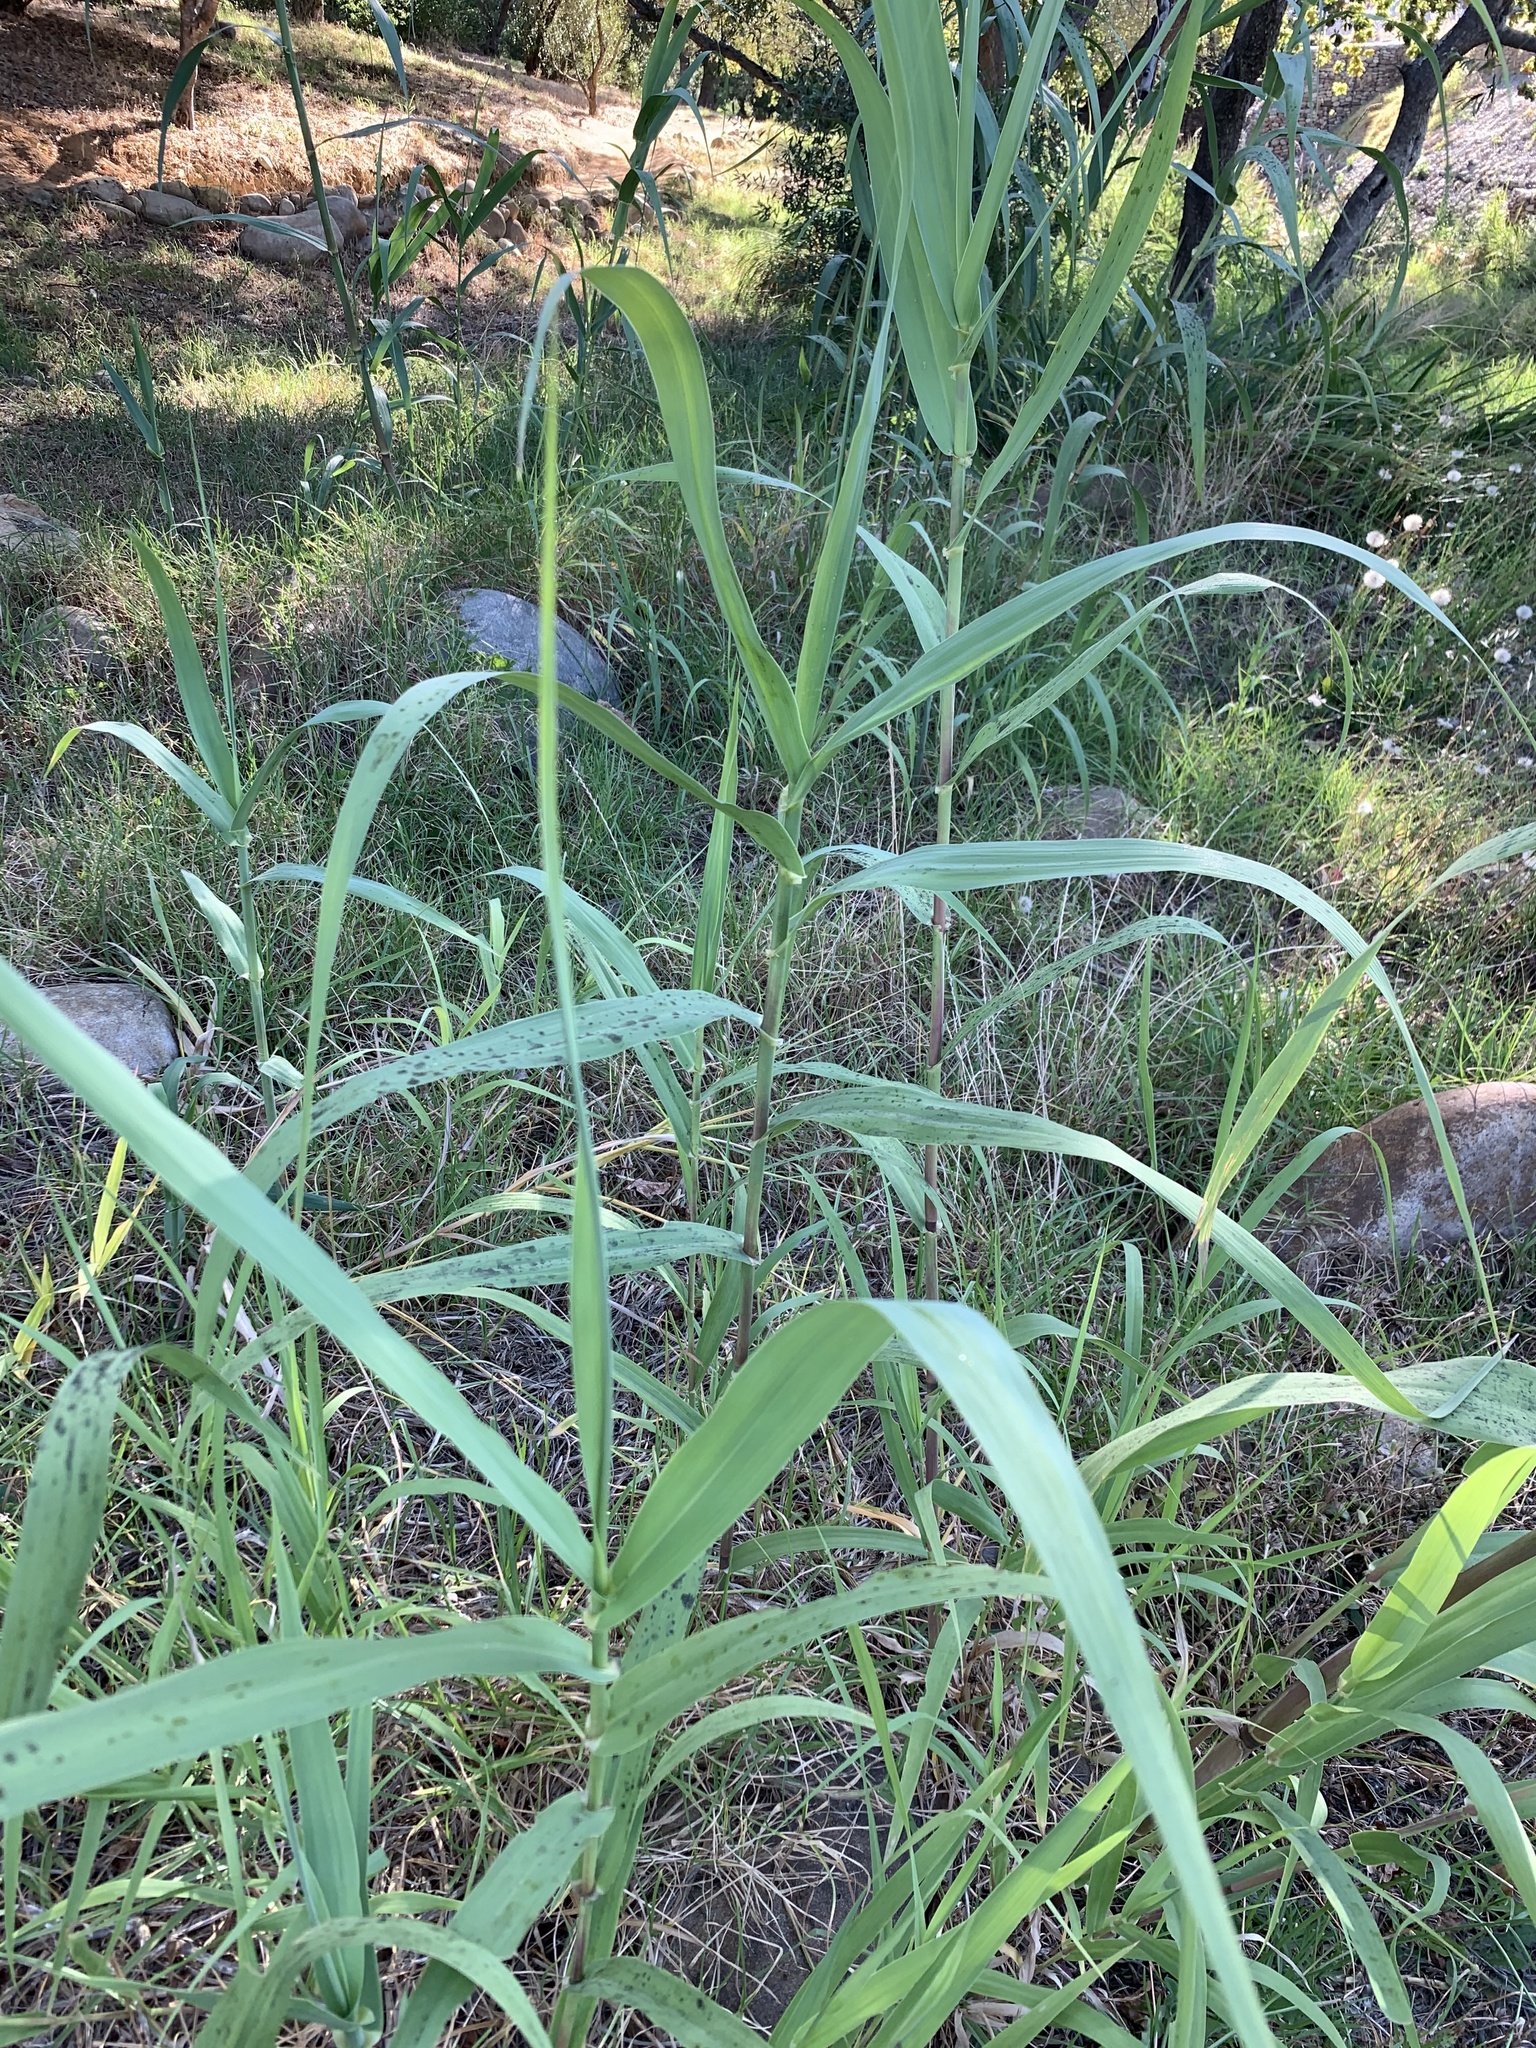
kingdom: Plantae
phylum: Tracheophyta
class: Liliopsida
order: Poales
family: Poaceae
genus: Arundo
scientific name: Arundo donax
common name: Giant reed
